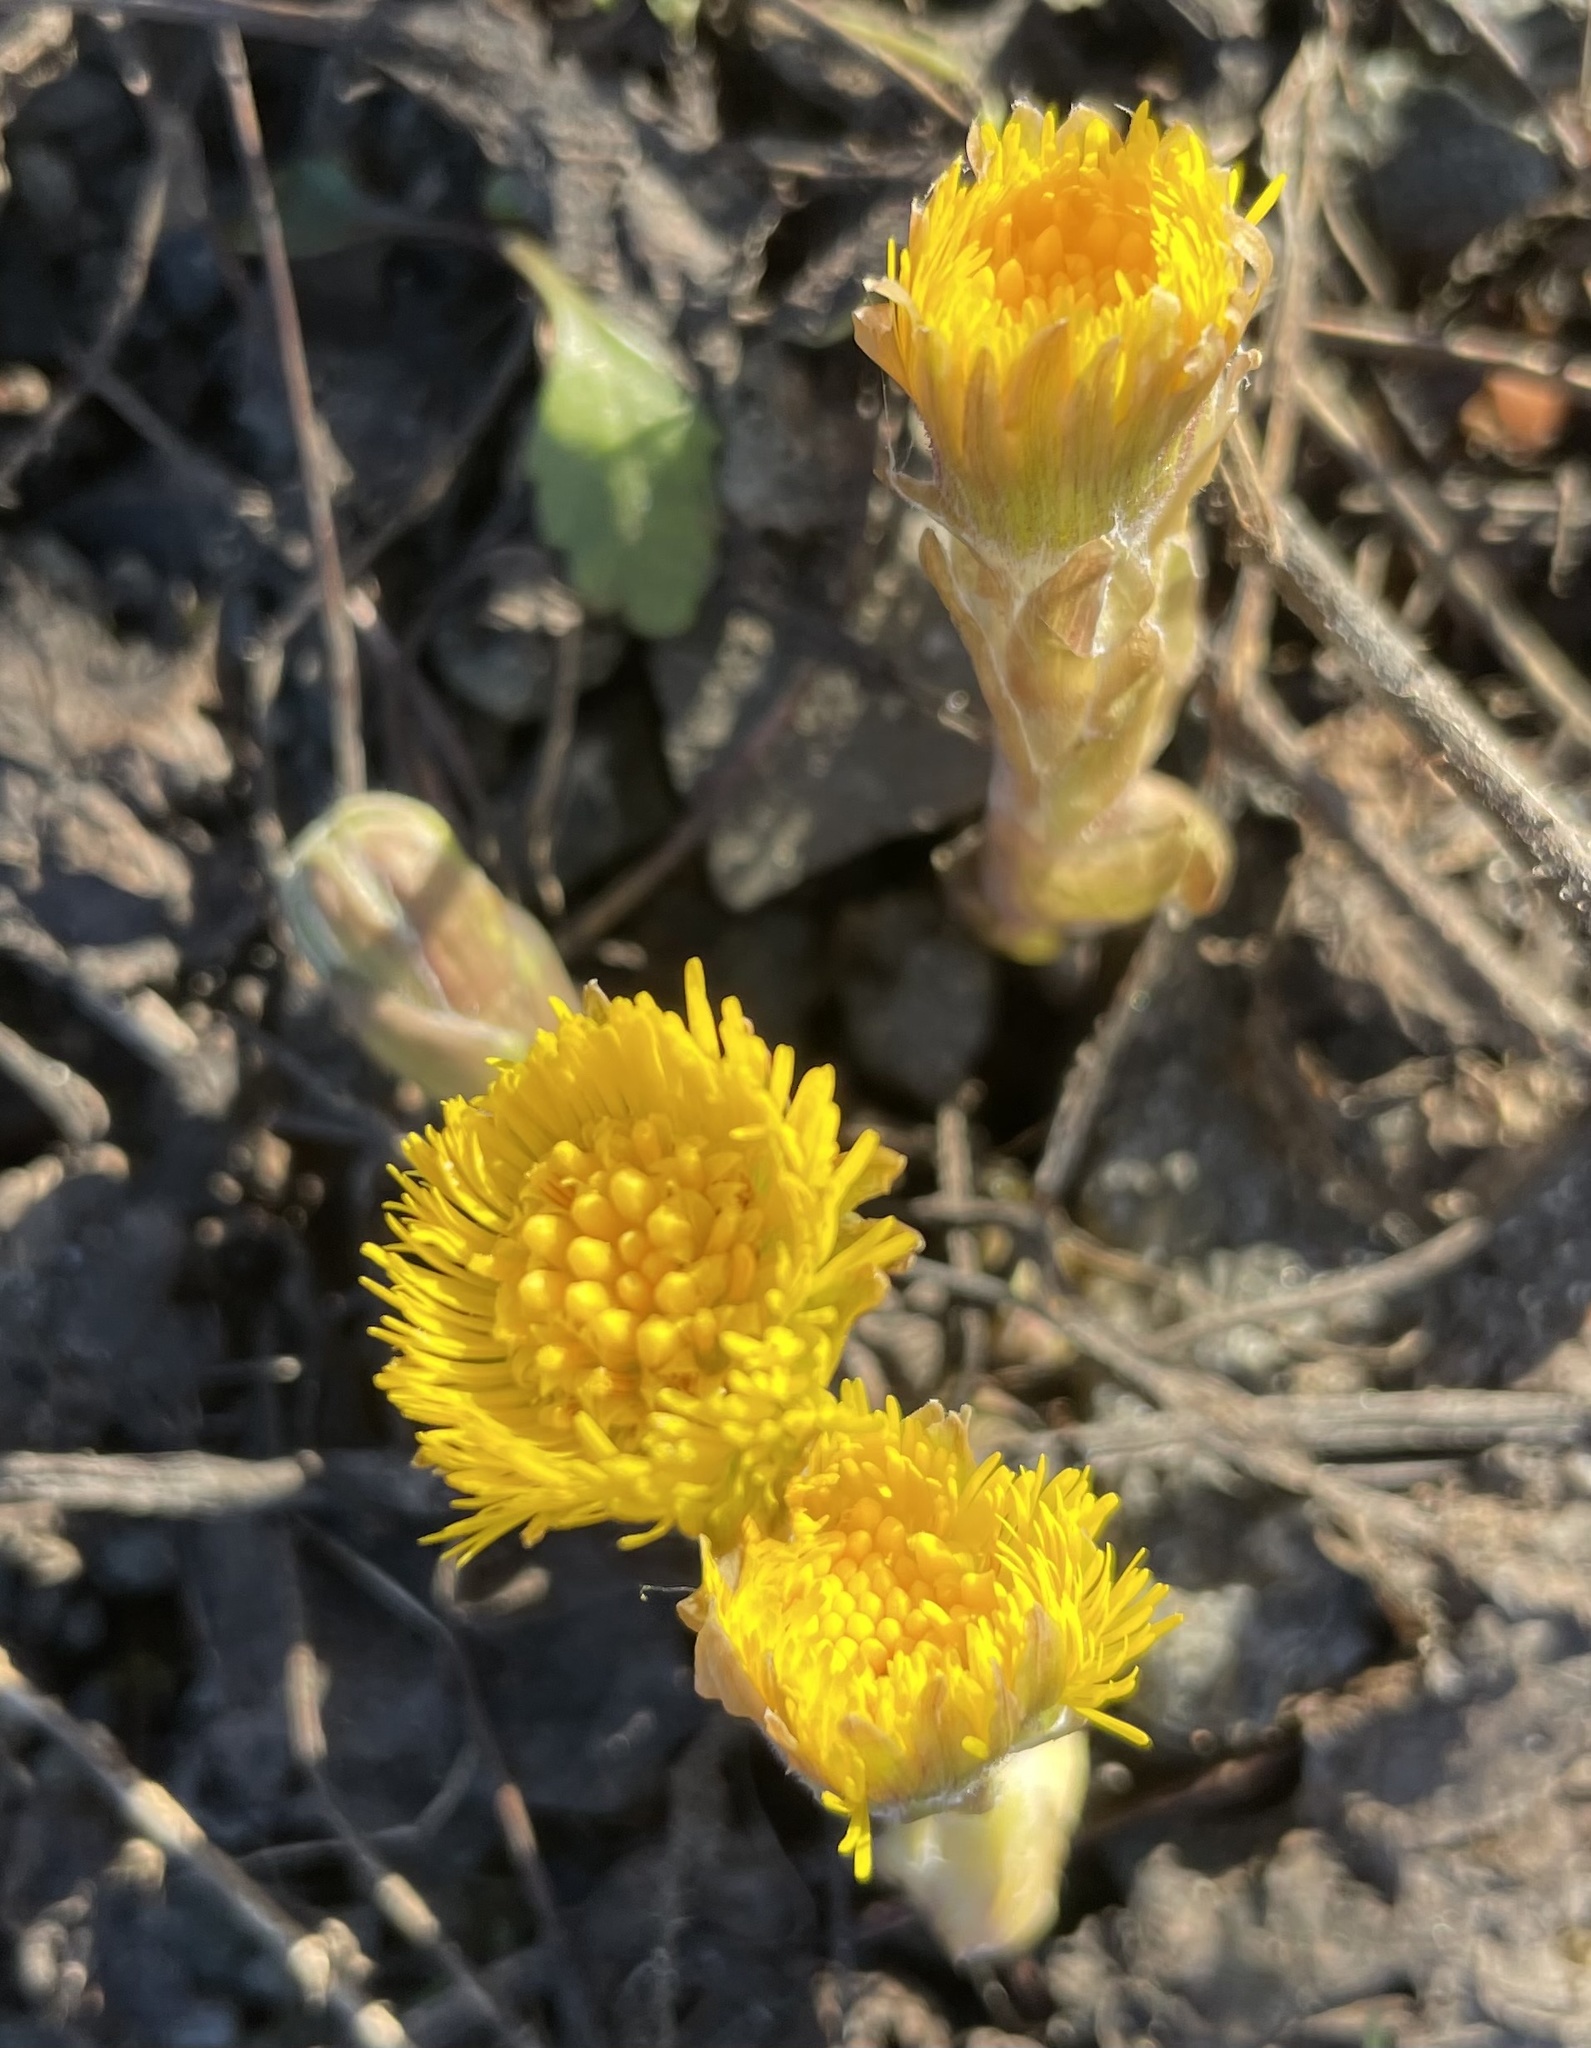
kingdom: Plantae
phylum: Tracheophyta
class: Magnoliopsida
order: Asterales
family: Asteraceae
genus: Tussilago
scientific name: Tussilago farfara
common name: Coltsfoot
